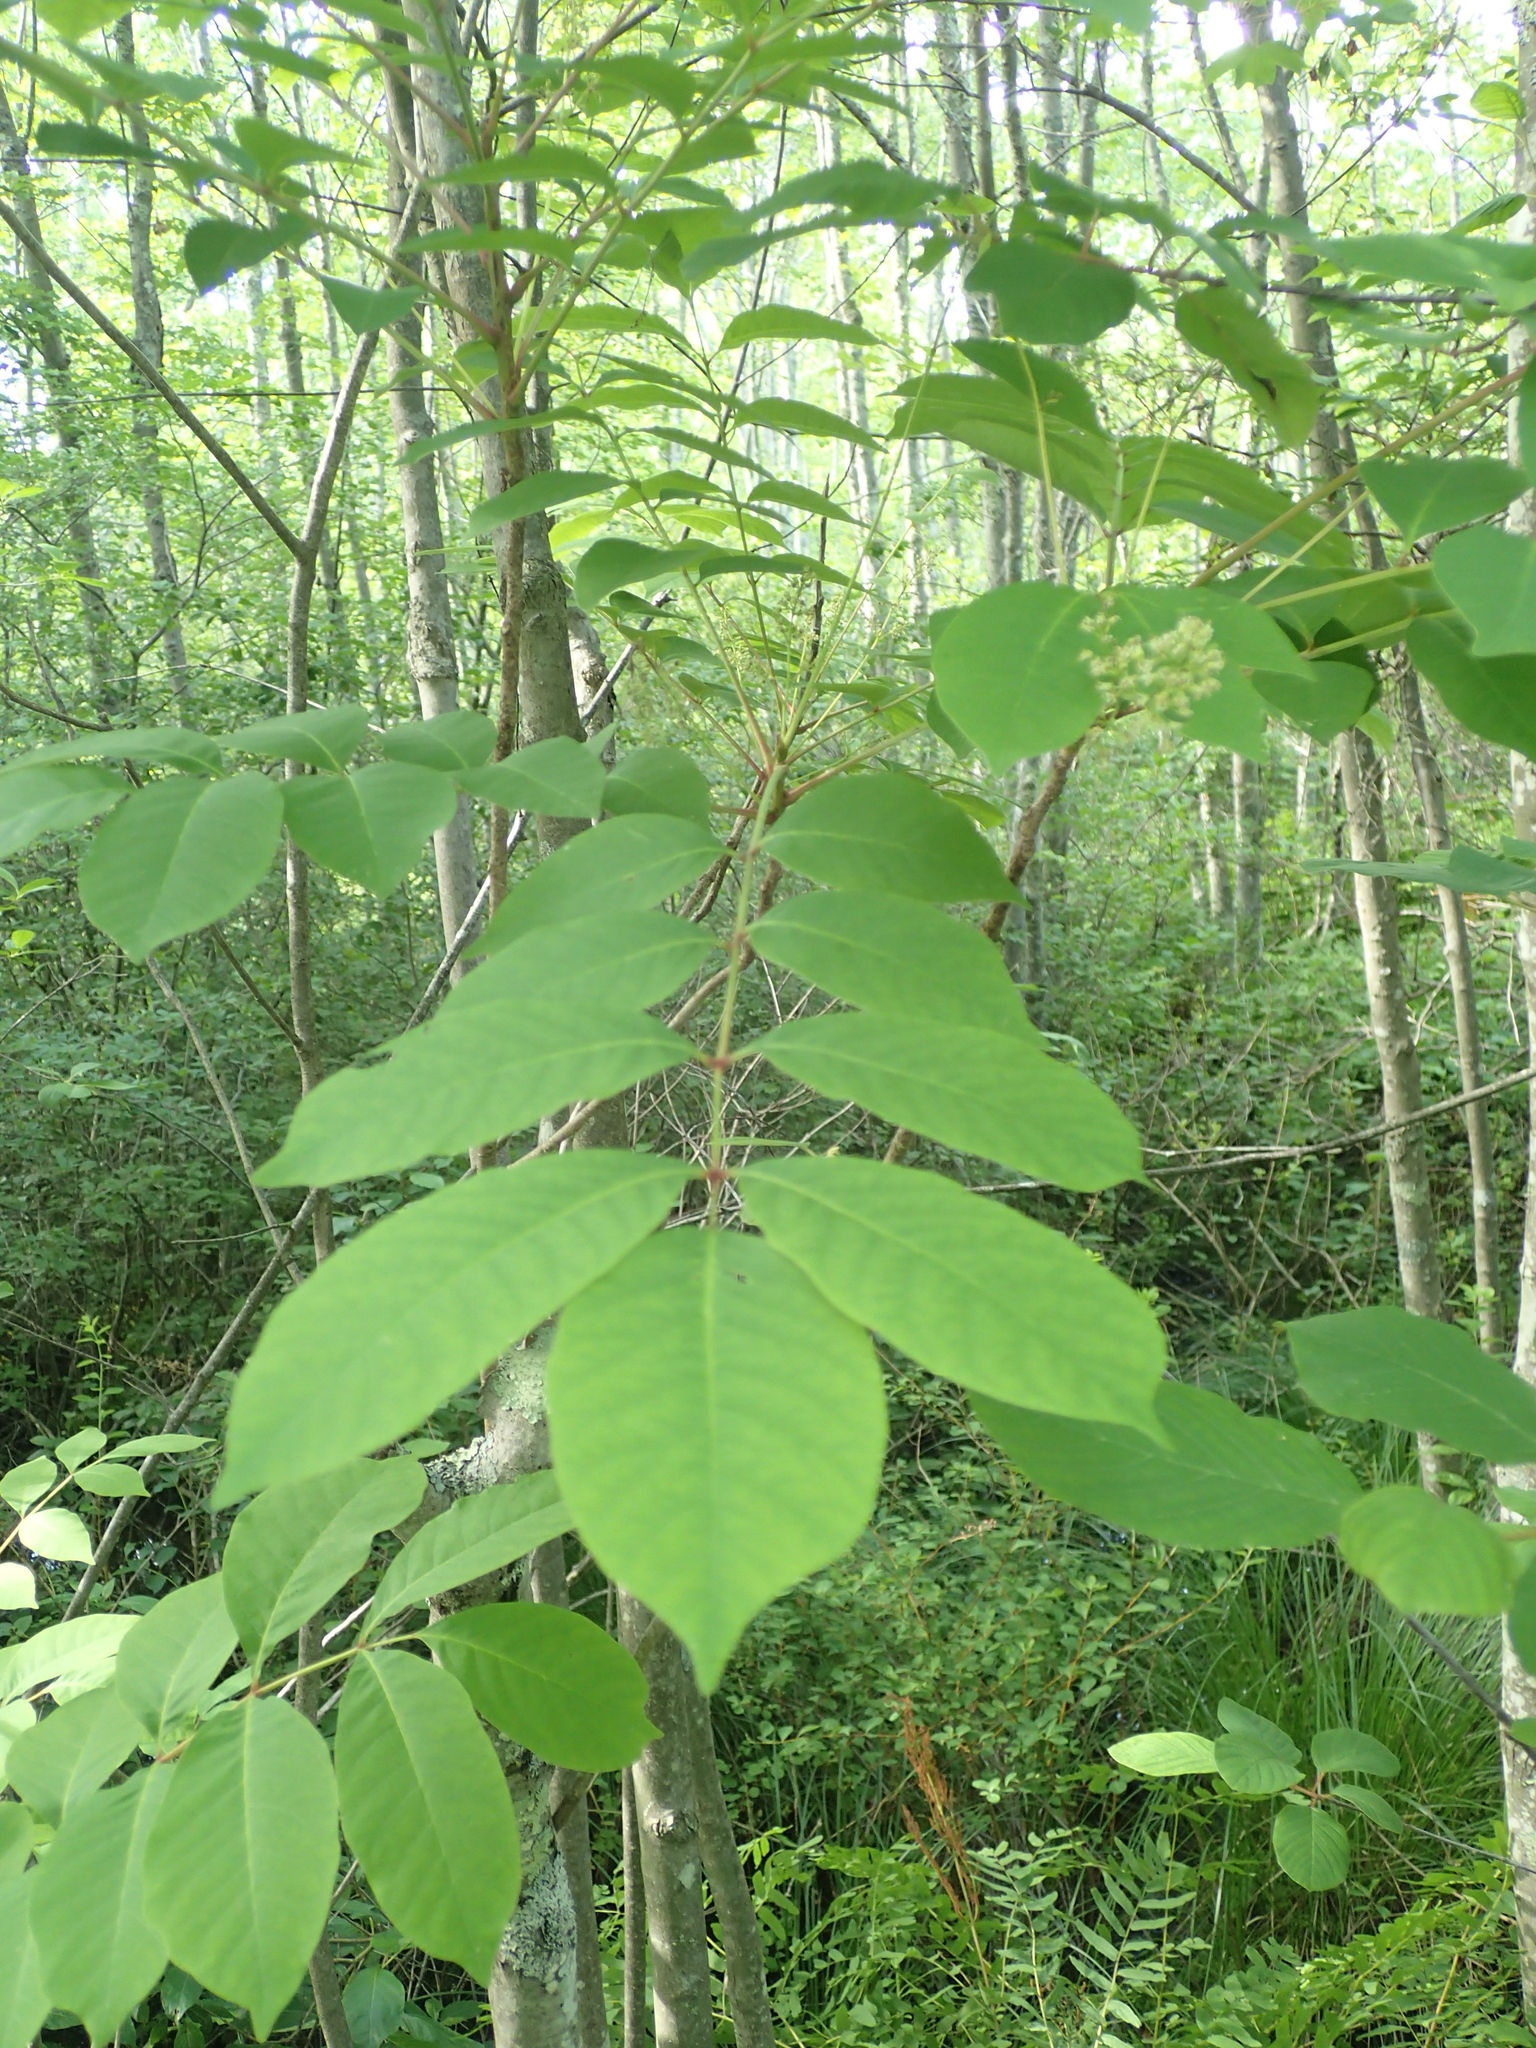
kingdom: Plantae
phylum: Tracheophyta
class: Magnoliopsida
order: Sapindales
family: Anacardiaceae
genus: Toxicodendron
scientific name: Toxicodendron vernix
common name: Poison sumac
